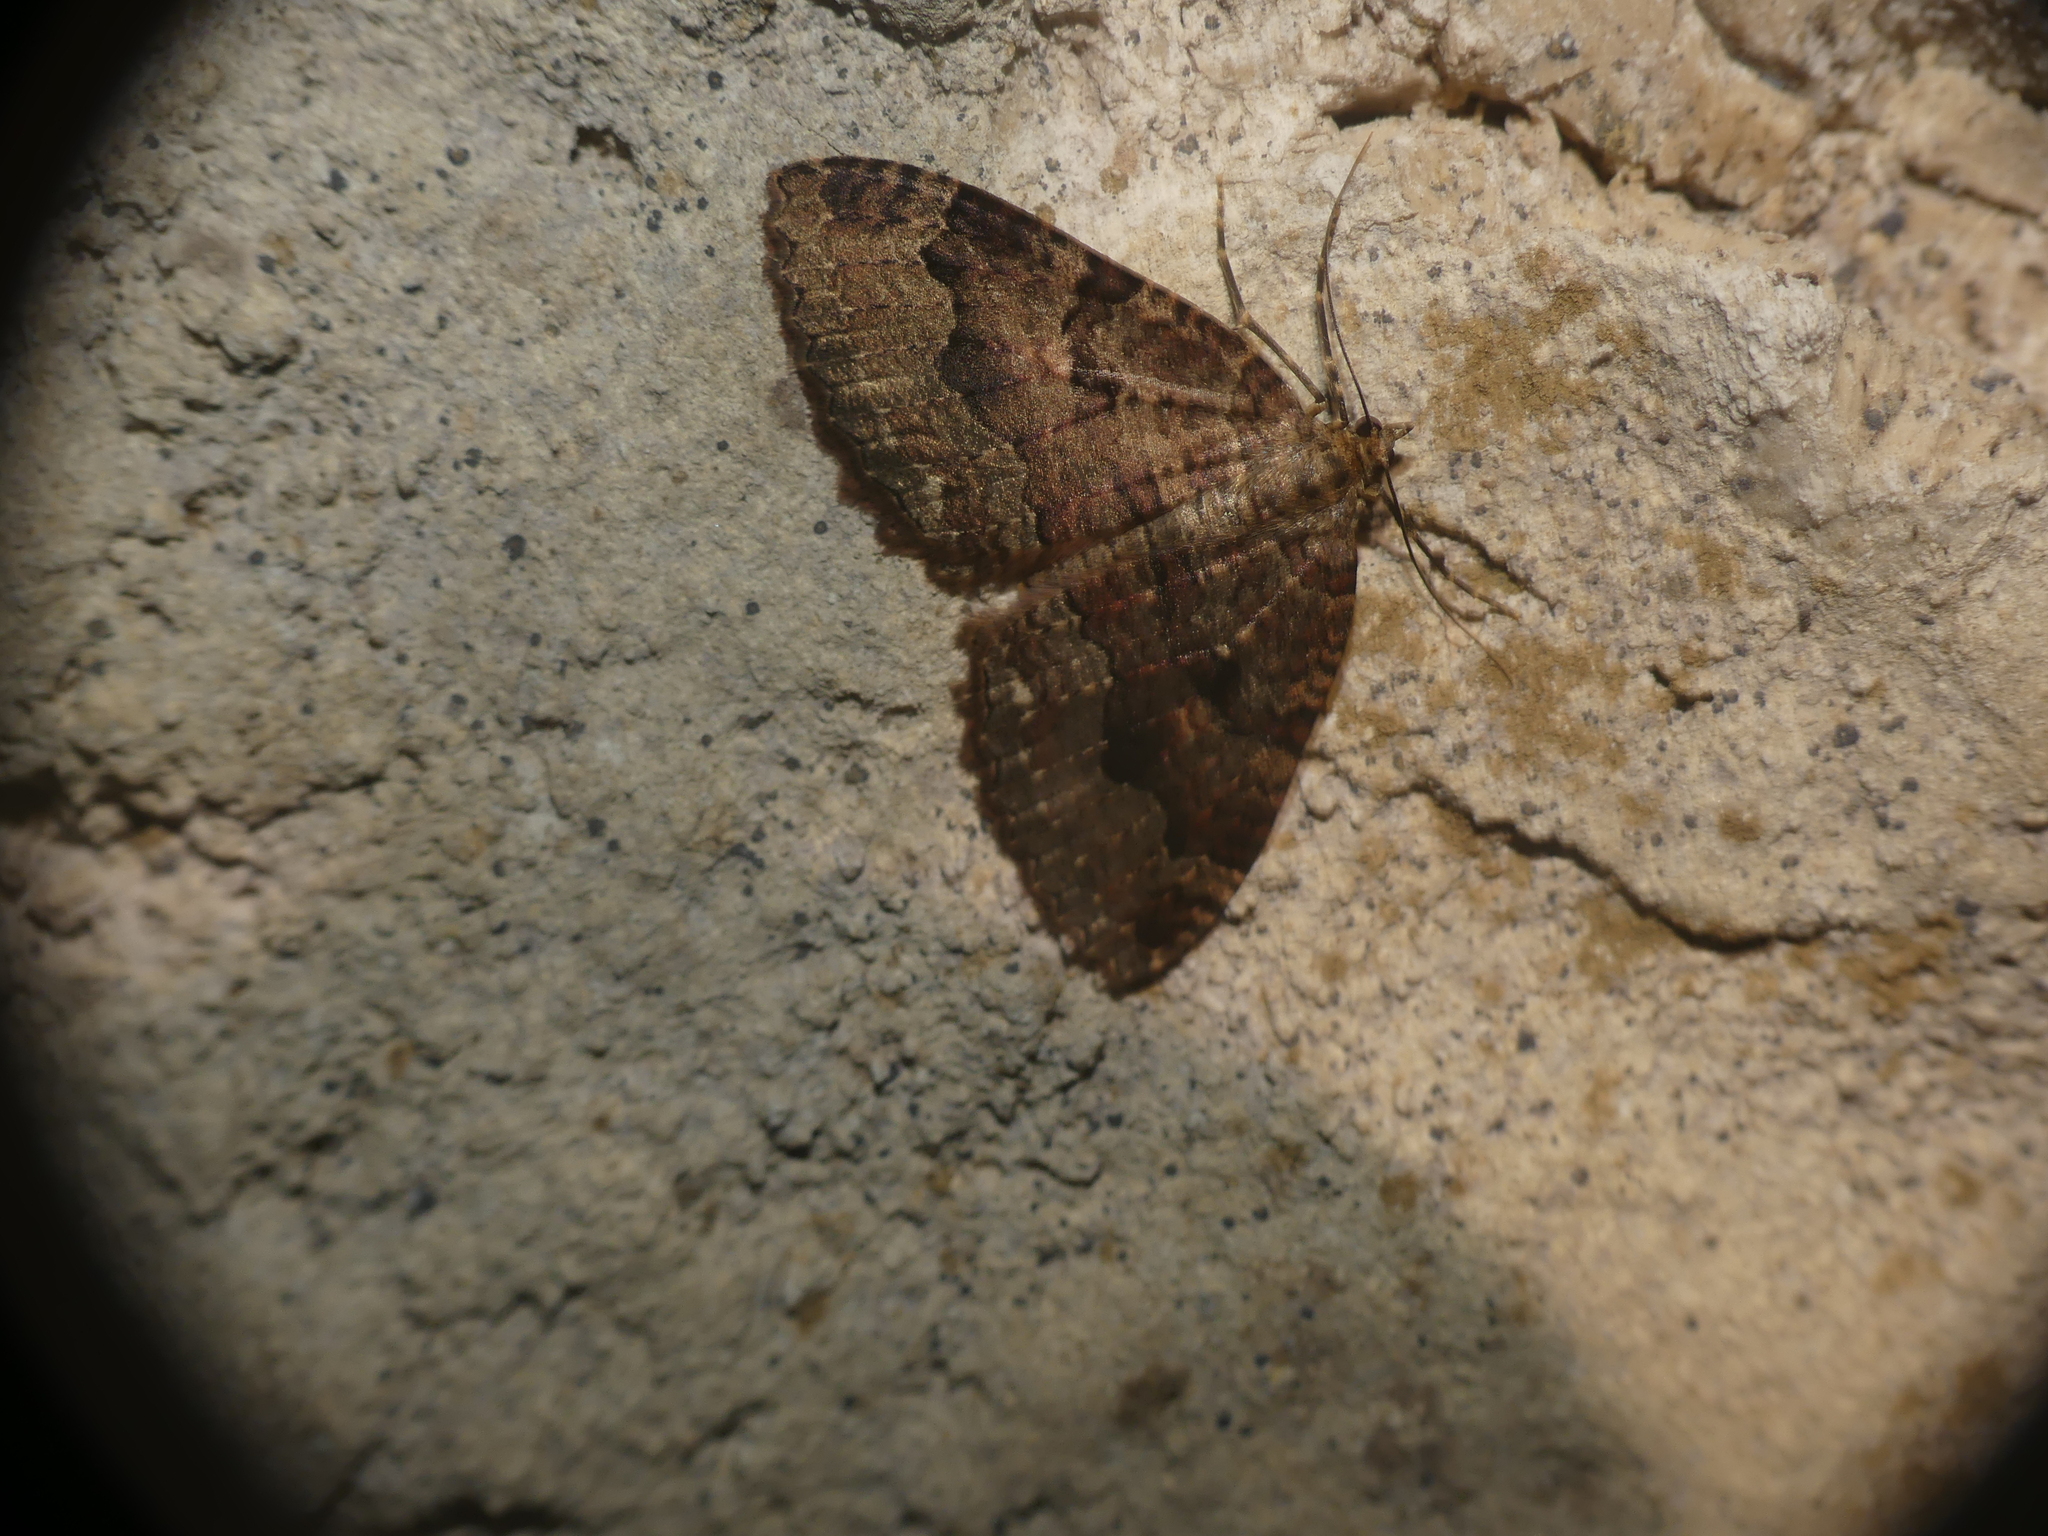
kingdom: Animalia
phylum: Arthropoda
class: Insecta
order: Lepidoptera
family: Geometridae
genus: Triphosa
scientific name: Triphosa dubitata
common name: Tissue
